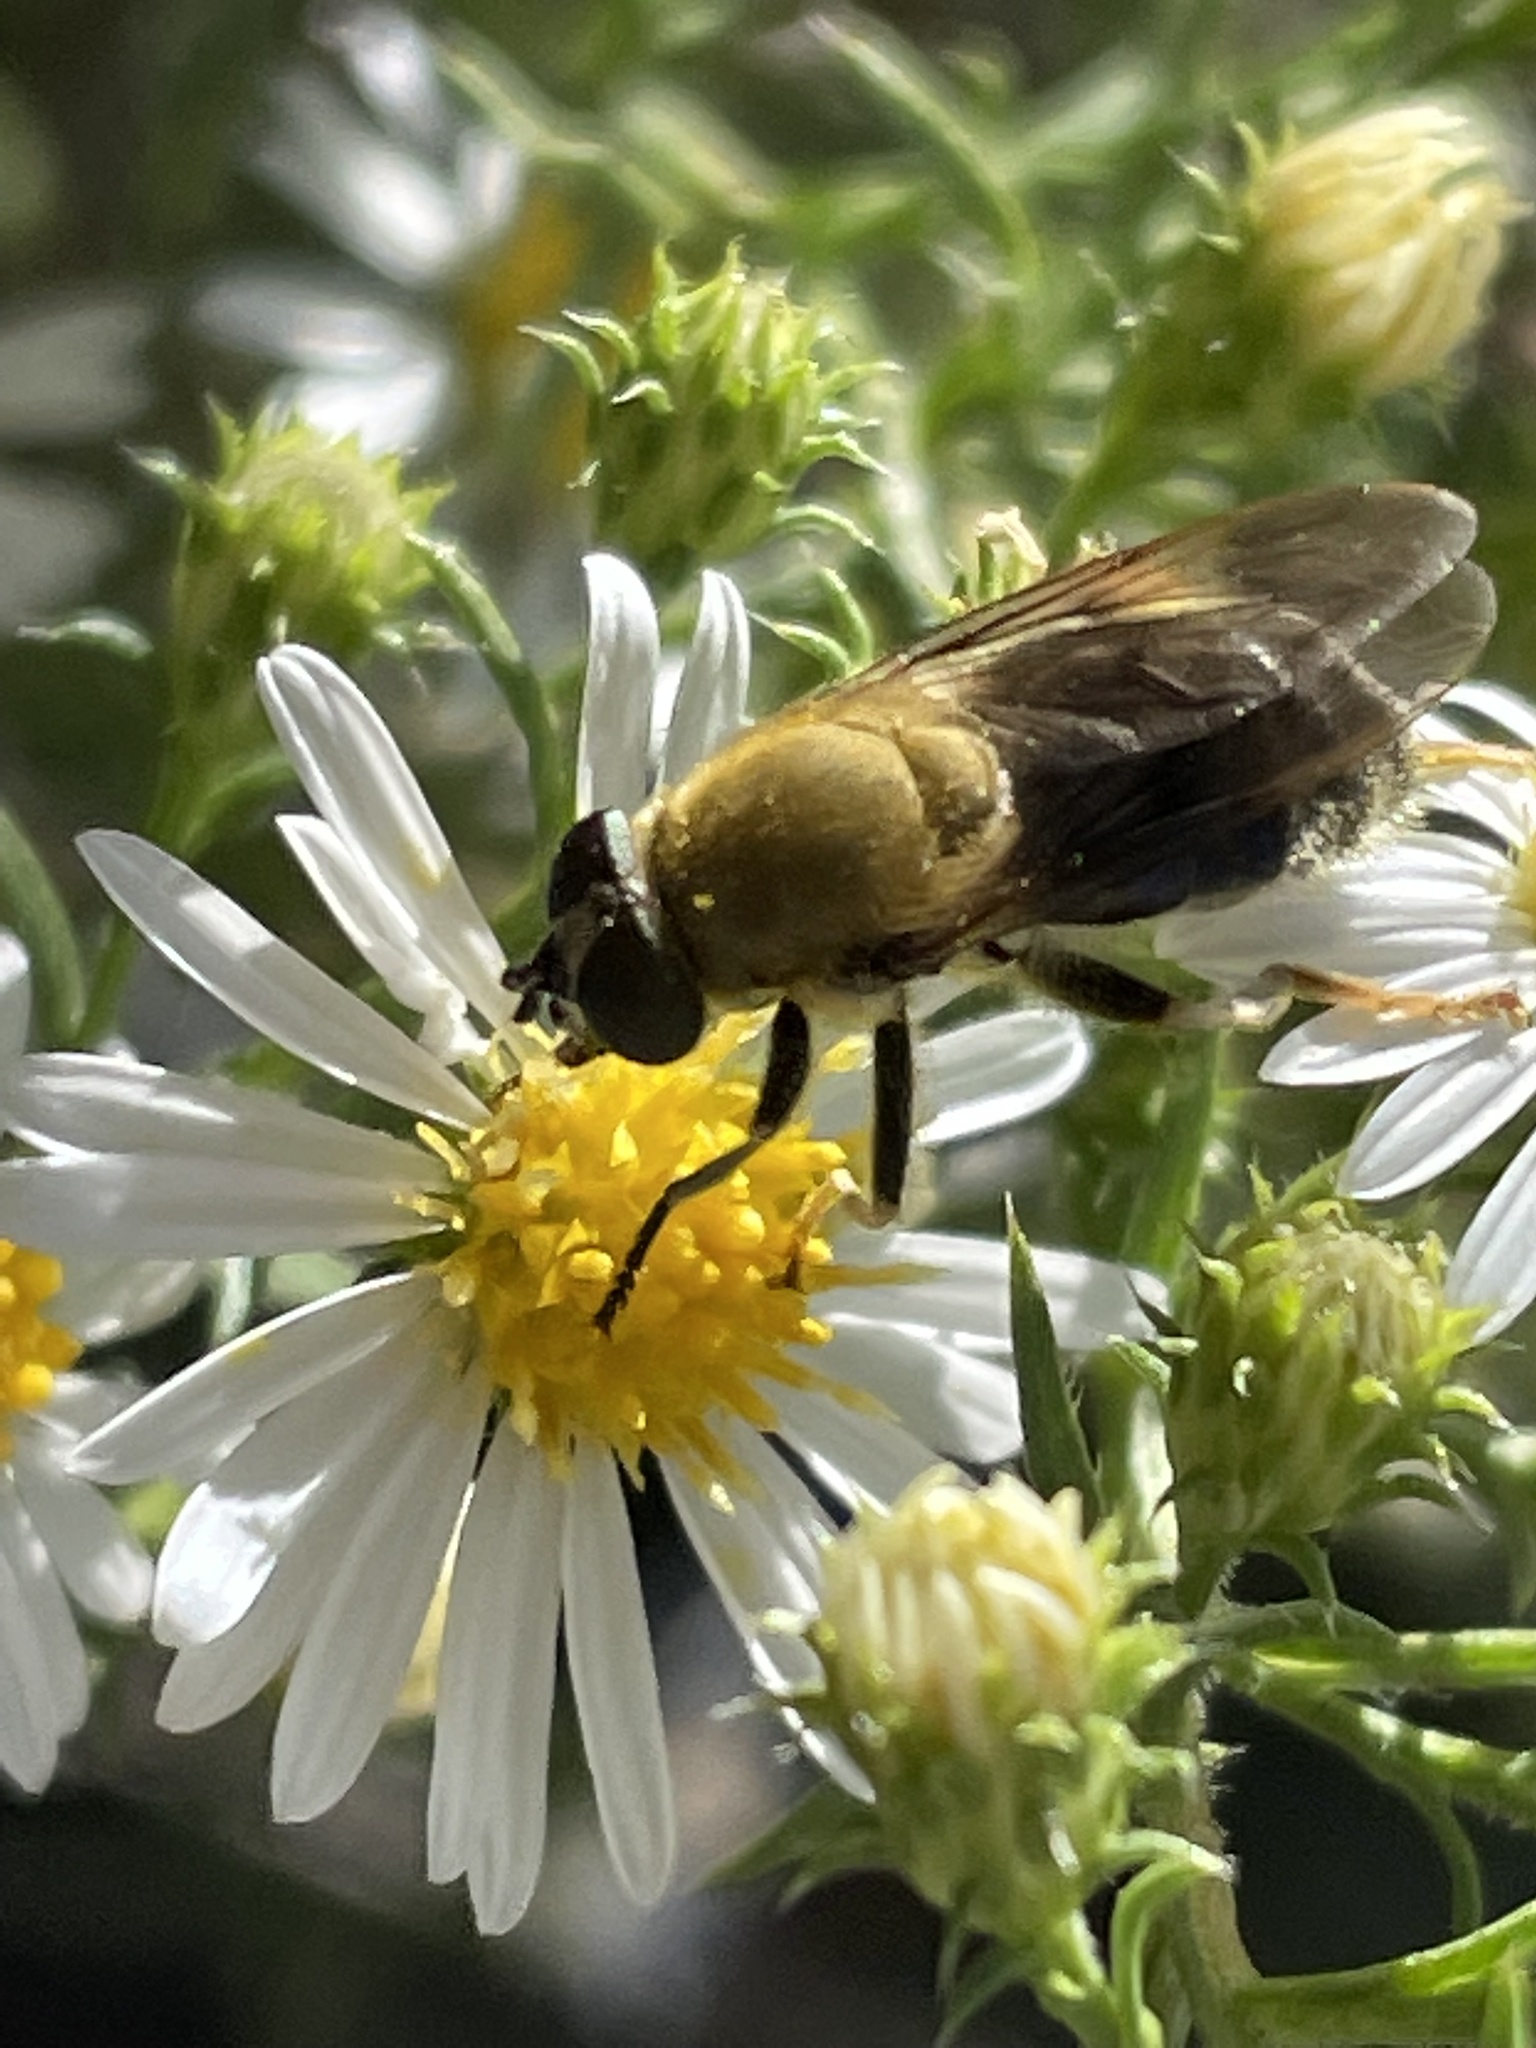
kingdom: Animalia
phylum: Arthropoda
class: Insecta
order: Diptera
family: Syrphidae
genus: Pterallastes
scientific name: Pterallastes thoracicus
